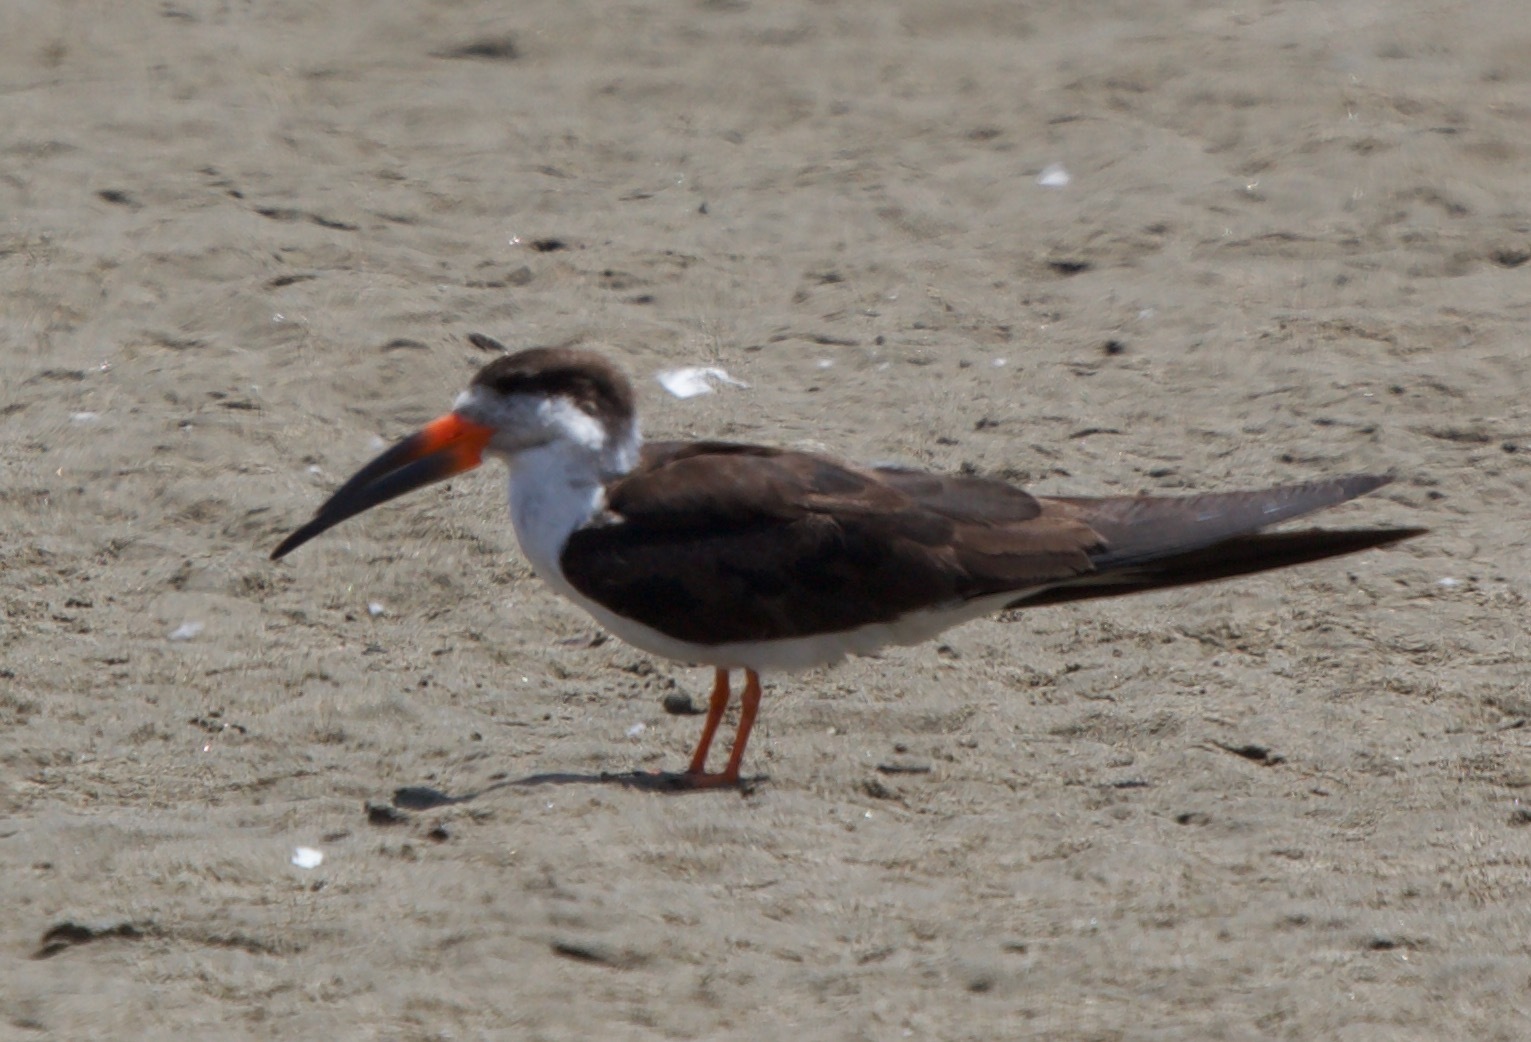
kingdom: Animalia
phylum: Chordata
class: Aves
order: Charadriiformes
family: Laridae
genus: Rynchops
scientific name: Rynchops niger
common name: Black skimmer
